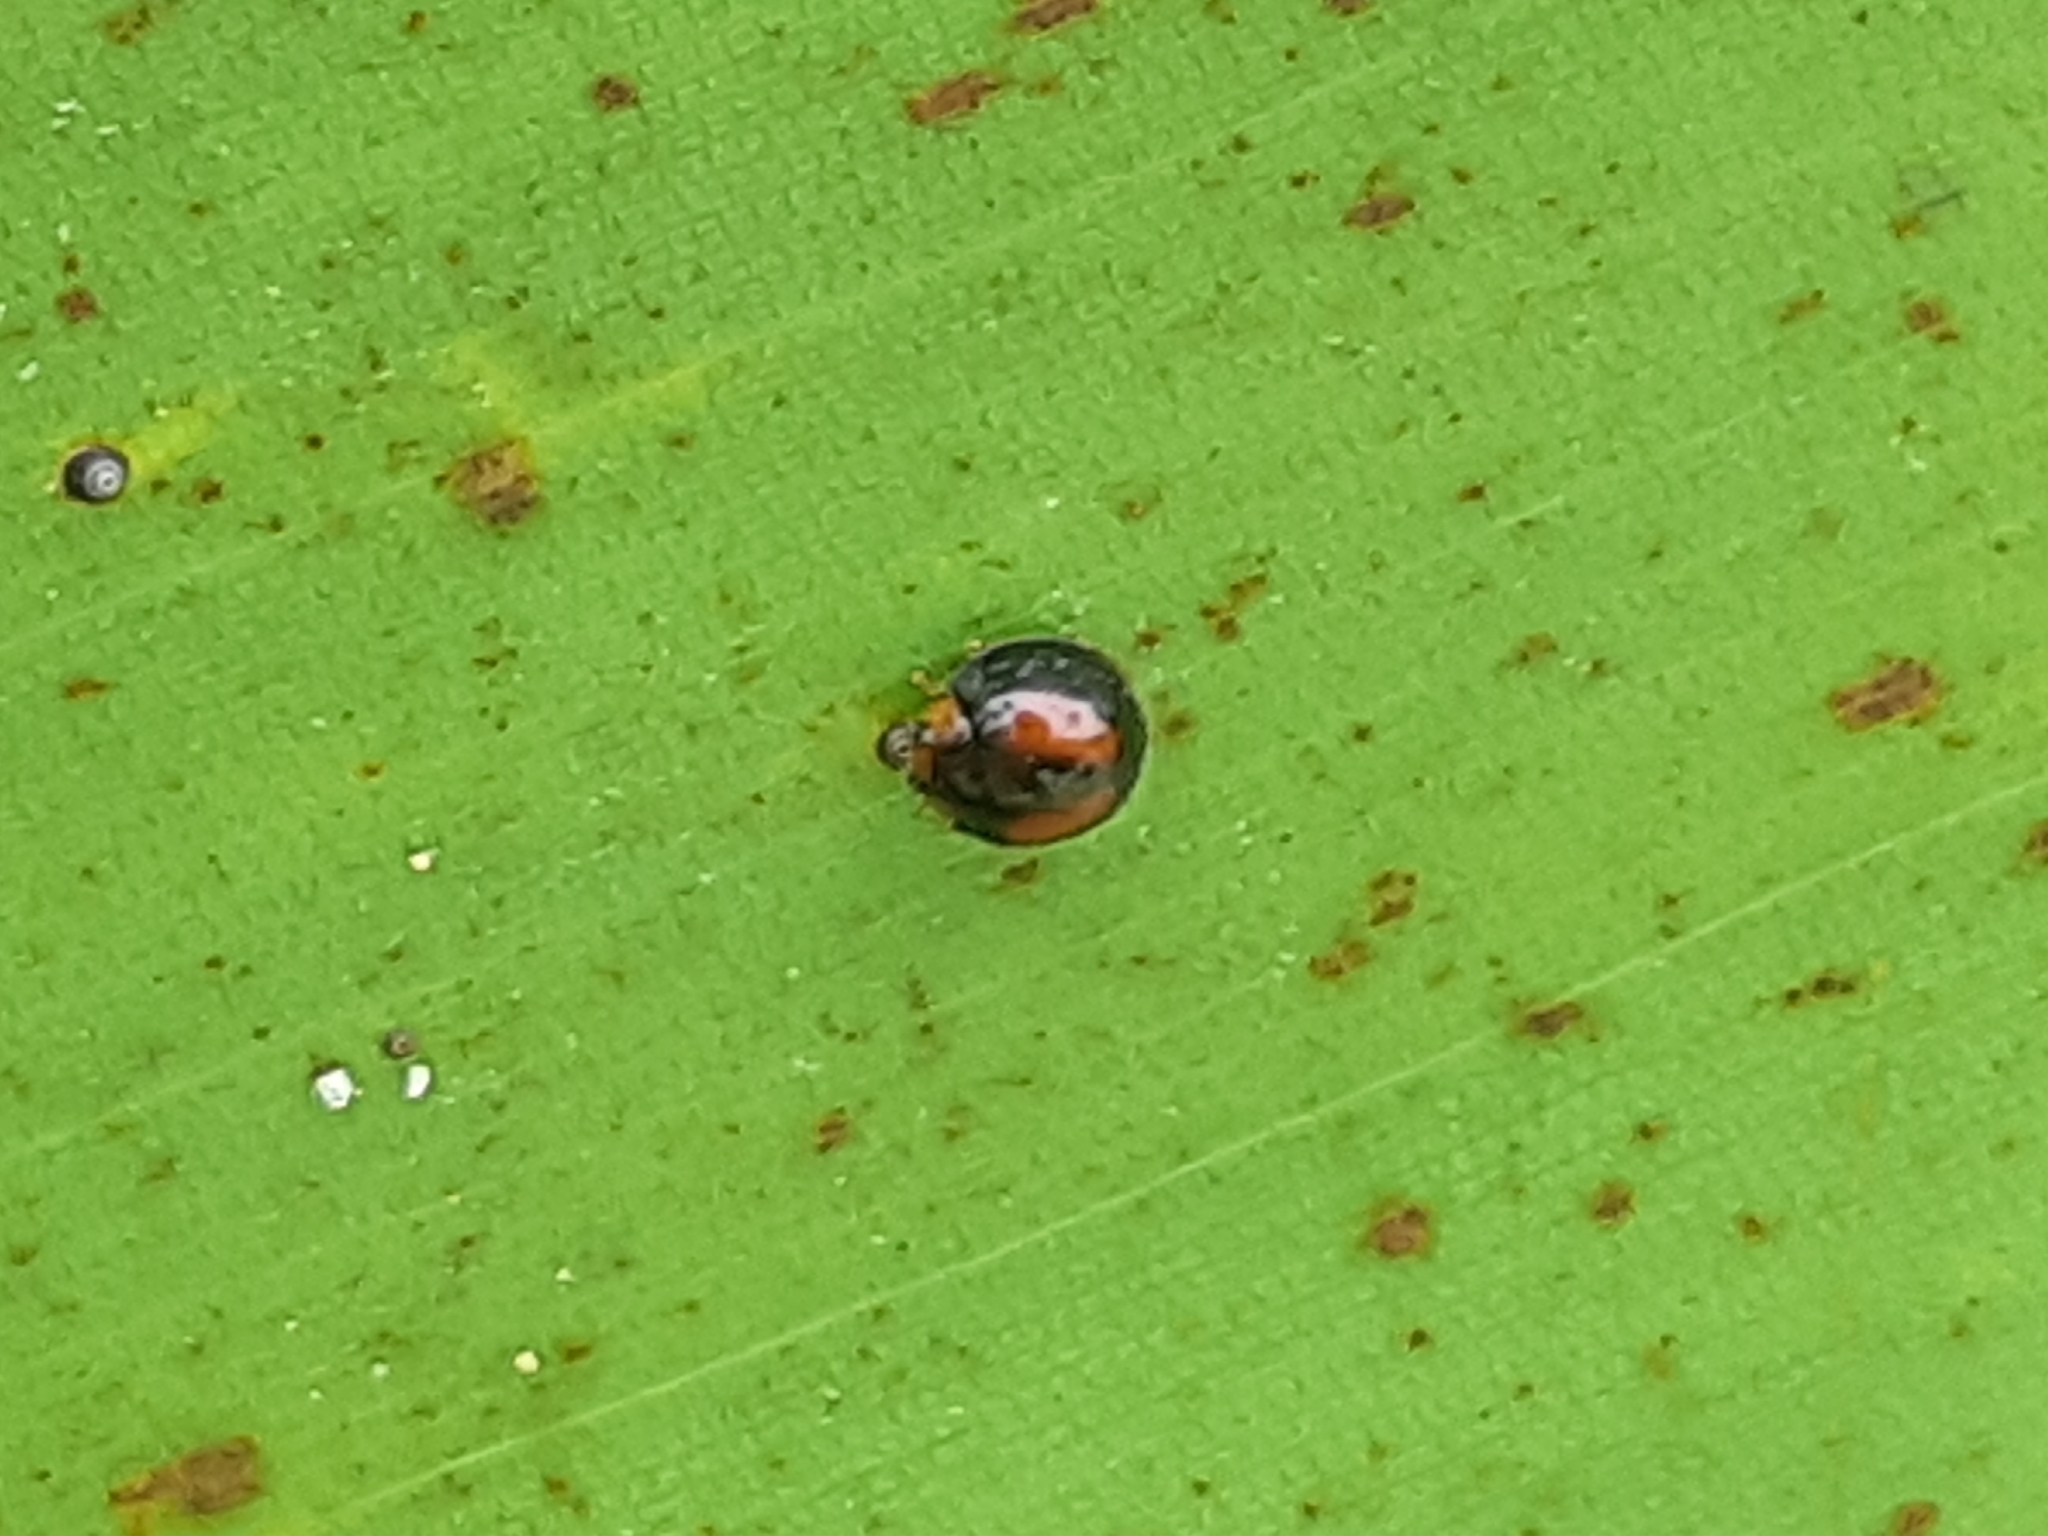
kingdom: Animalia
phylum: Arthropoda
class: Insecta
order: Coleoptera
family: Coccinellidae
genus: Pentilia
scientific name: Pentilia chelsea
